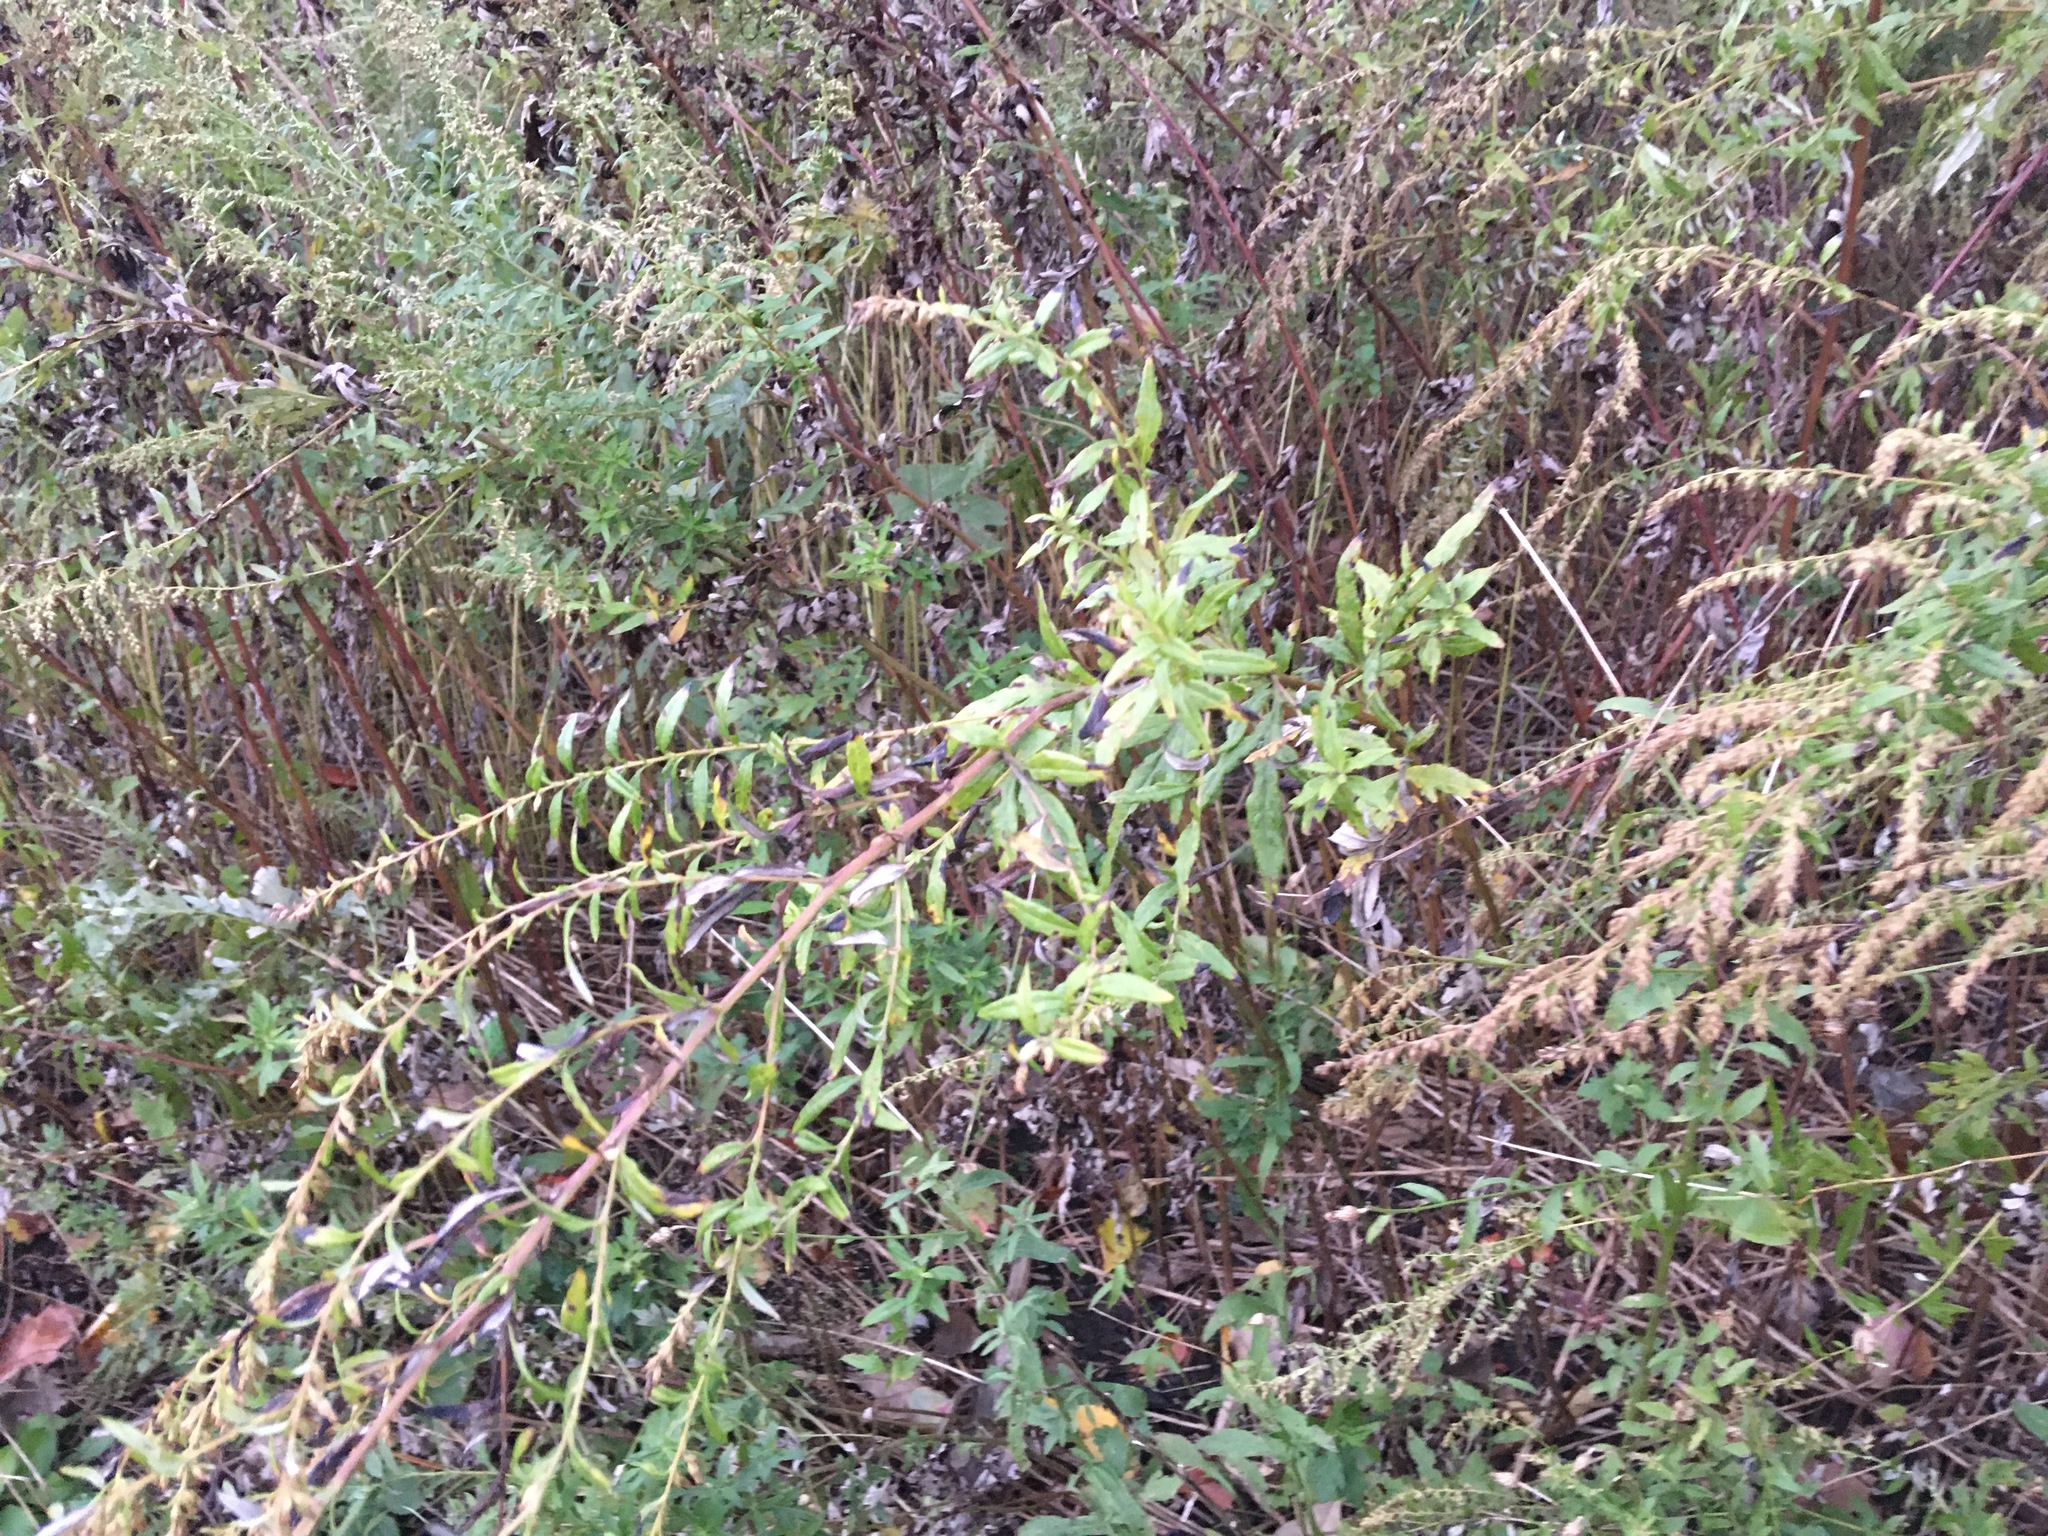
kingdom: Plantae
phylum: Tracheophyta
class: Magnoliopsida
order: Asterales
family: Asteraceae
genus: Artemisia
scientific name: Artemisia vulgaris
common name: Mugwort
